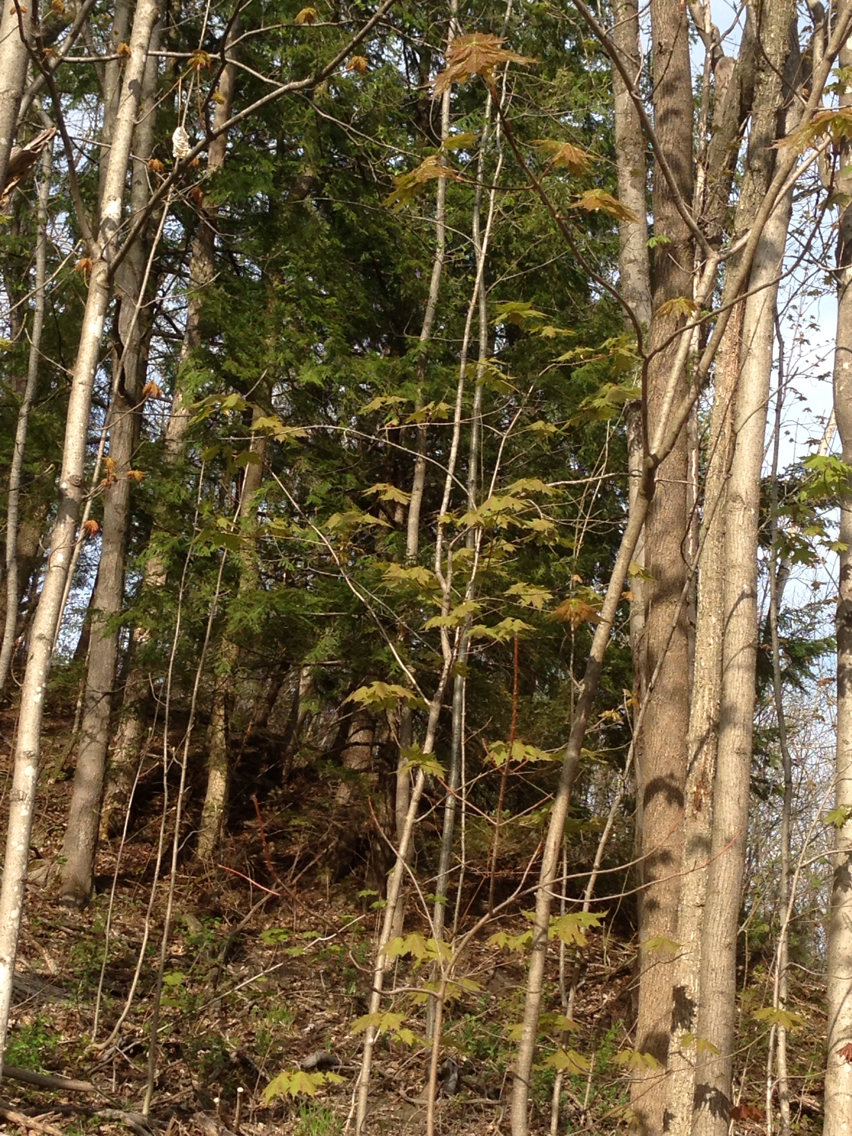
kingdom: Plantae
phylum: Tracheophyta
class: Pinopsida
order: Pinales
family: Pinaceae
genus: Tsuga
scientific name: Tsuga canadensis
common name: Eastern hemlock
